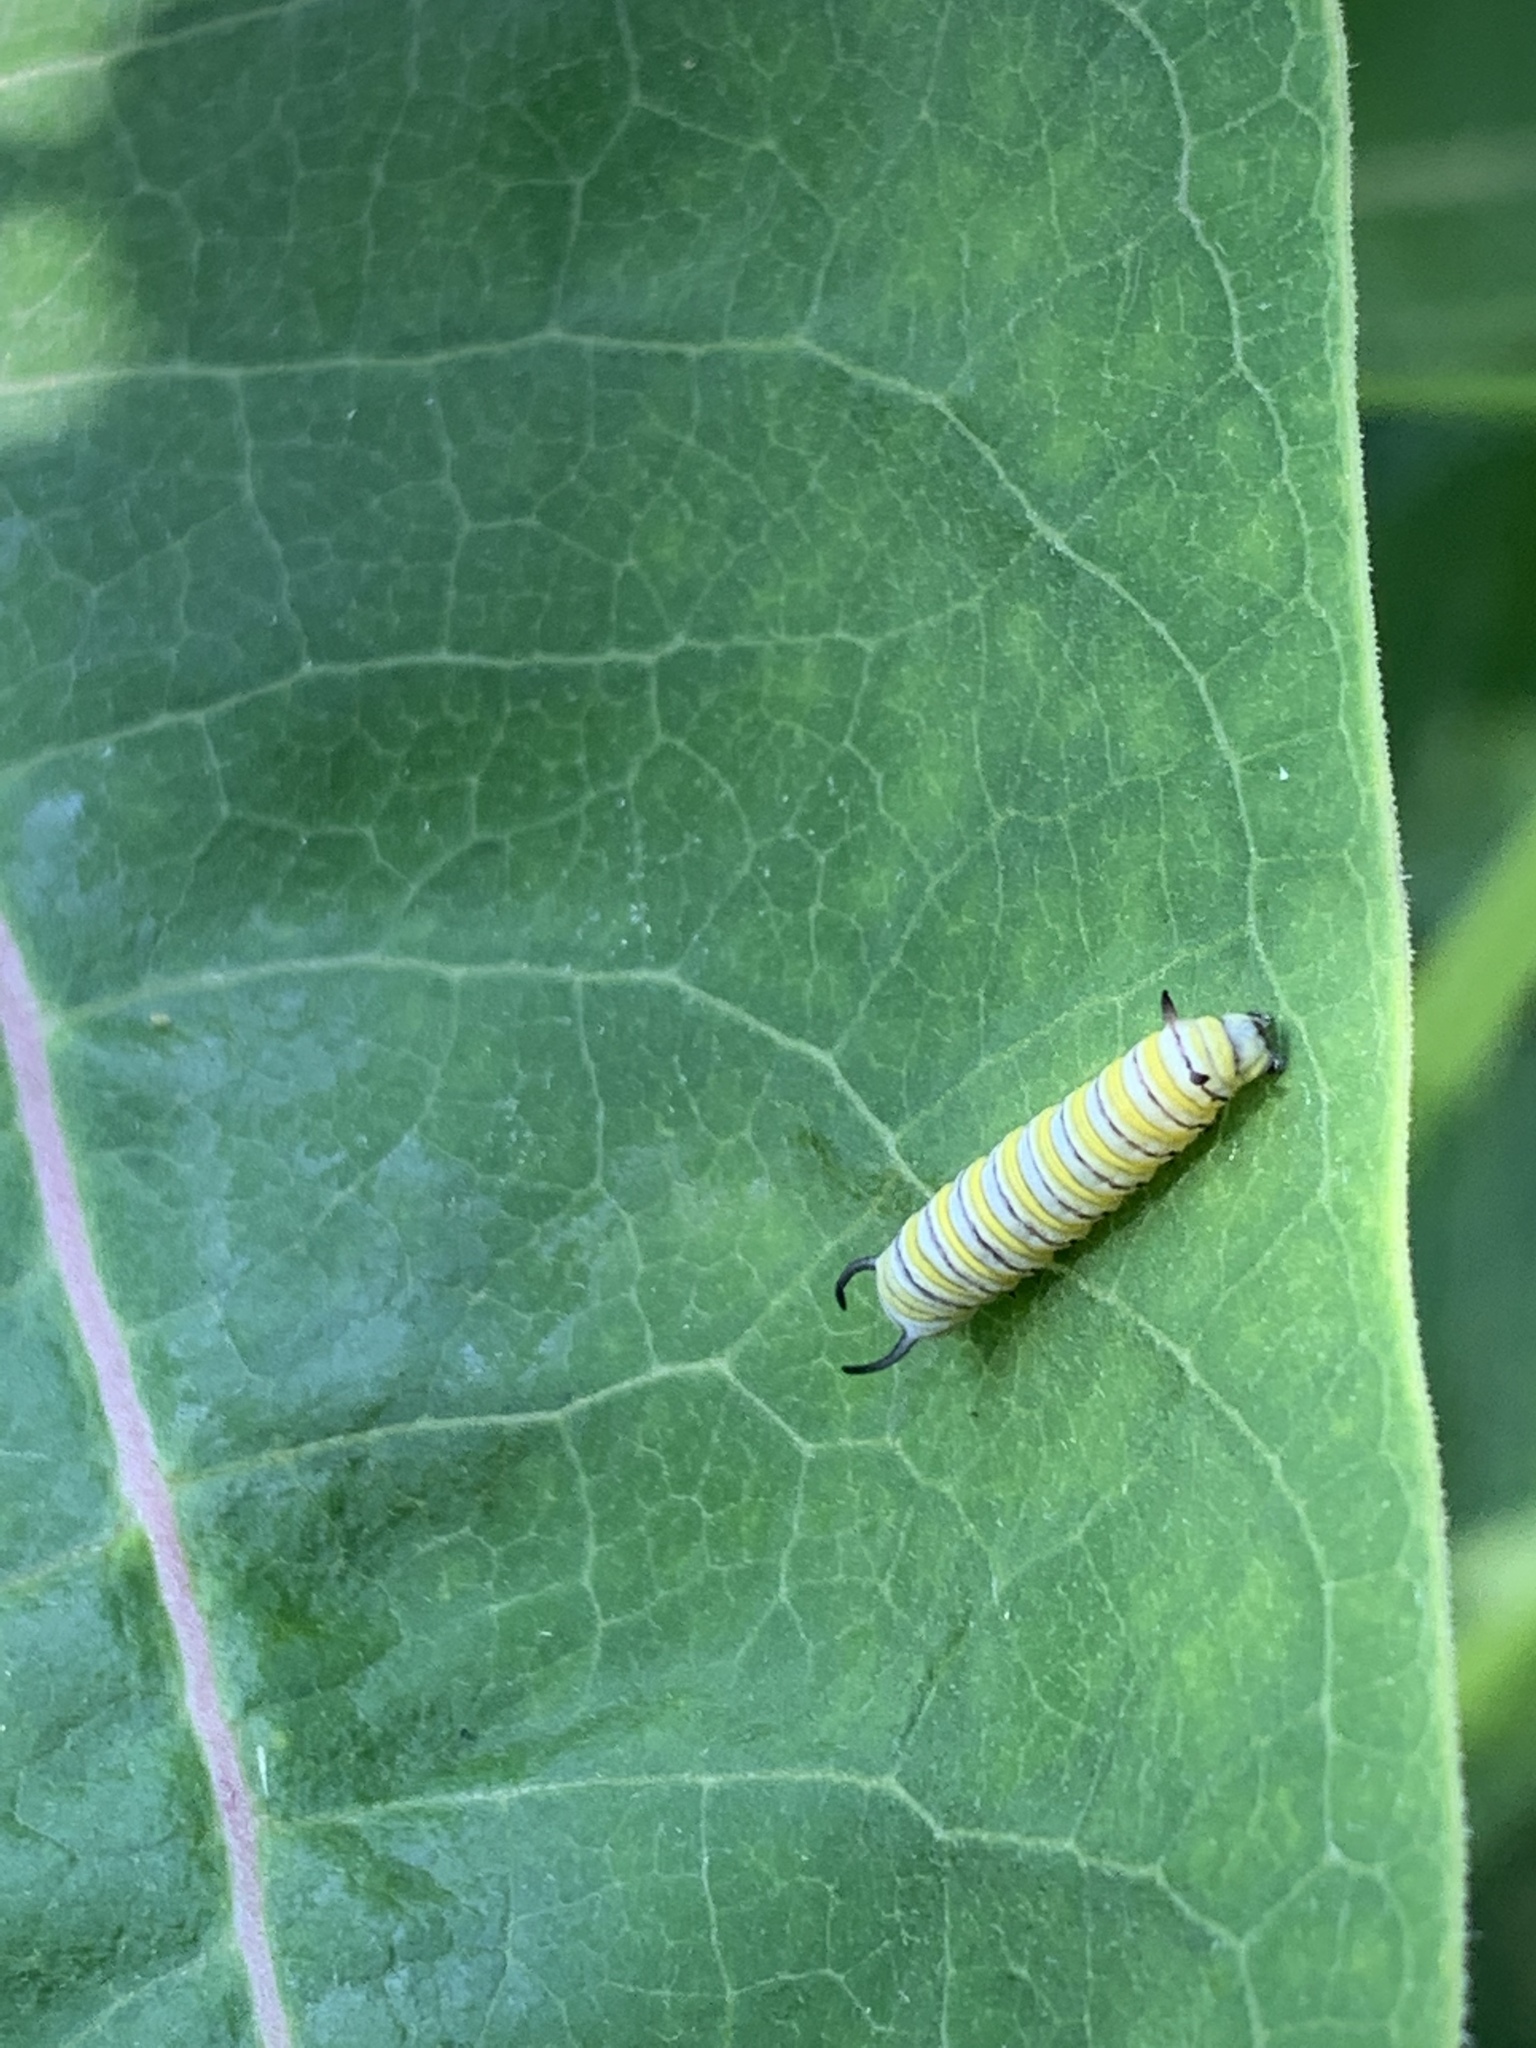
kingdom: Animalia
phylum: Arthropoda
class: Insecta
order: Lepidoptera
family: Nymphalidae
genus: Danaus
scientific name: Danaus plexippus
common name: Monarch
